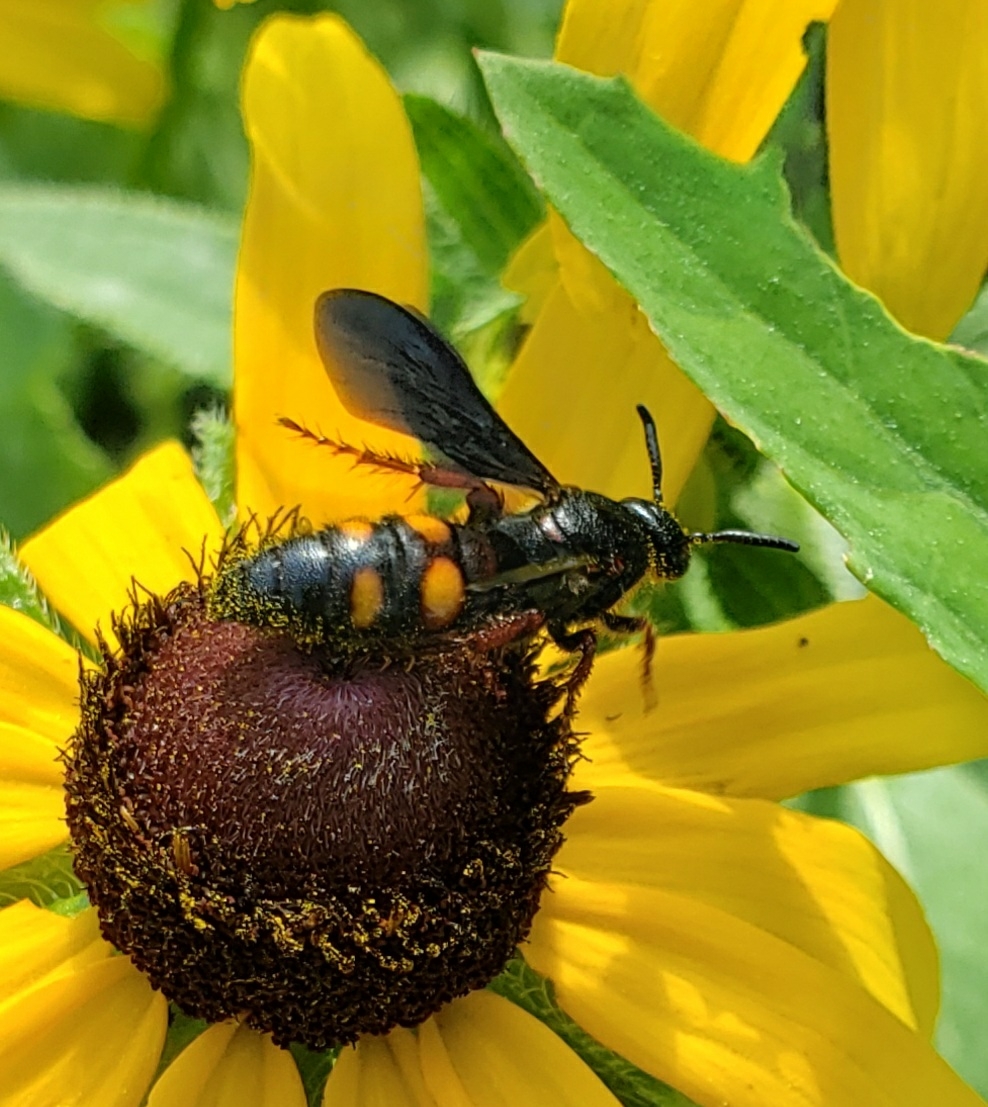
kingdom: Animalia
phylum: Arthropoda
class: Insecta
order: Hymenoptera
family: Scoliidae
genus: Scolia
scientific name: Scolia nobilitata
